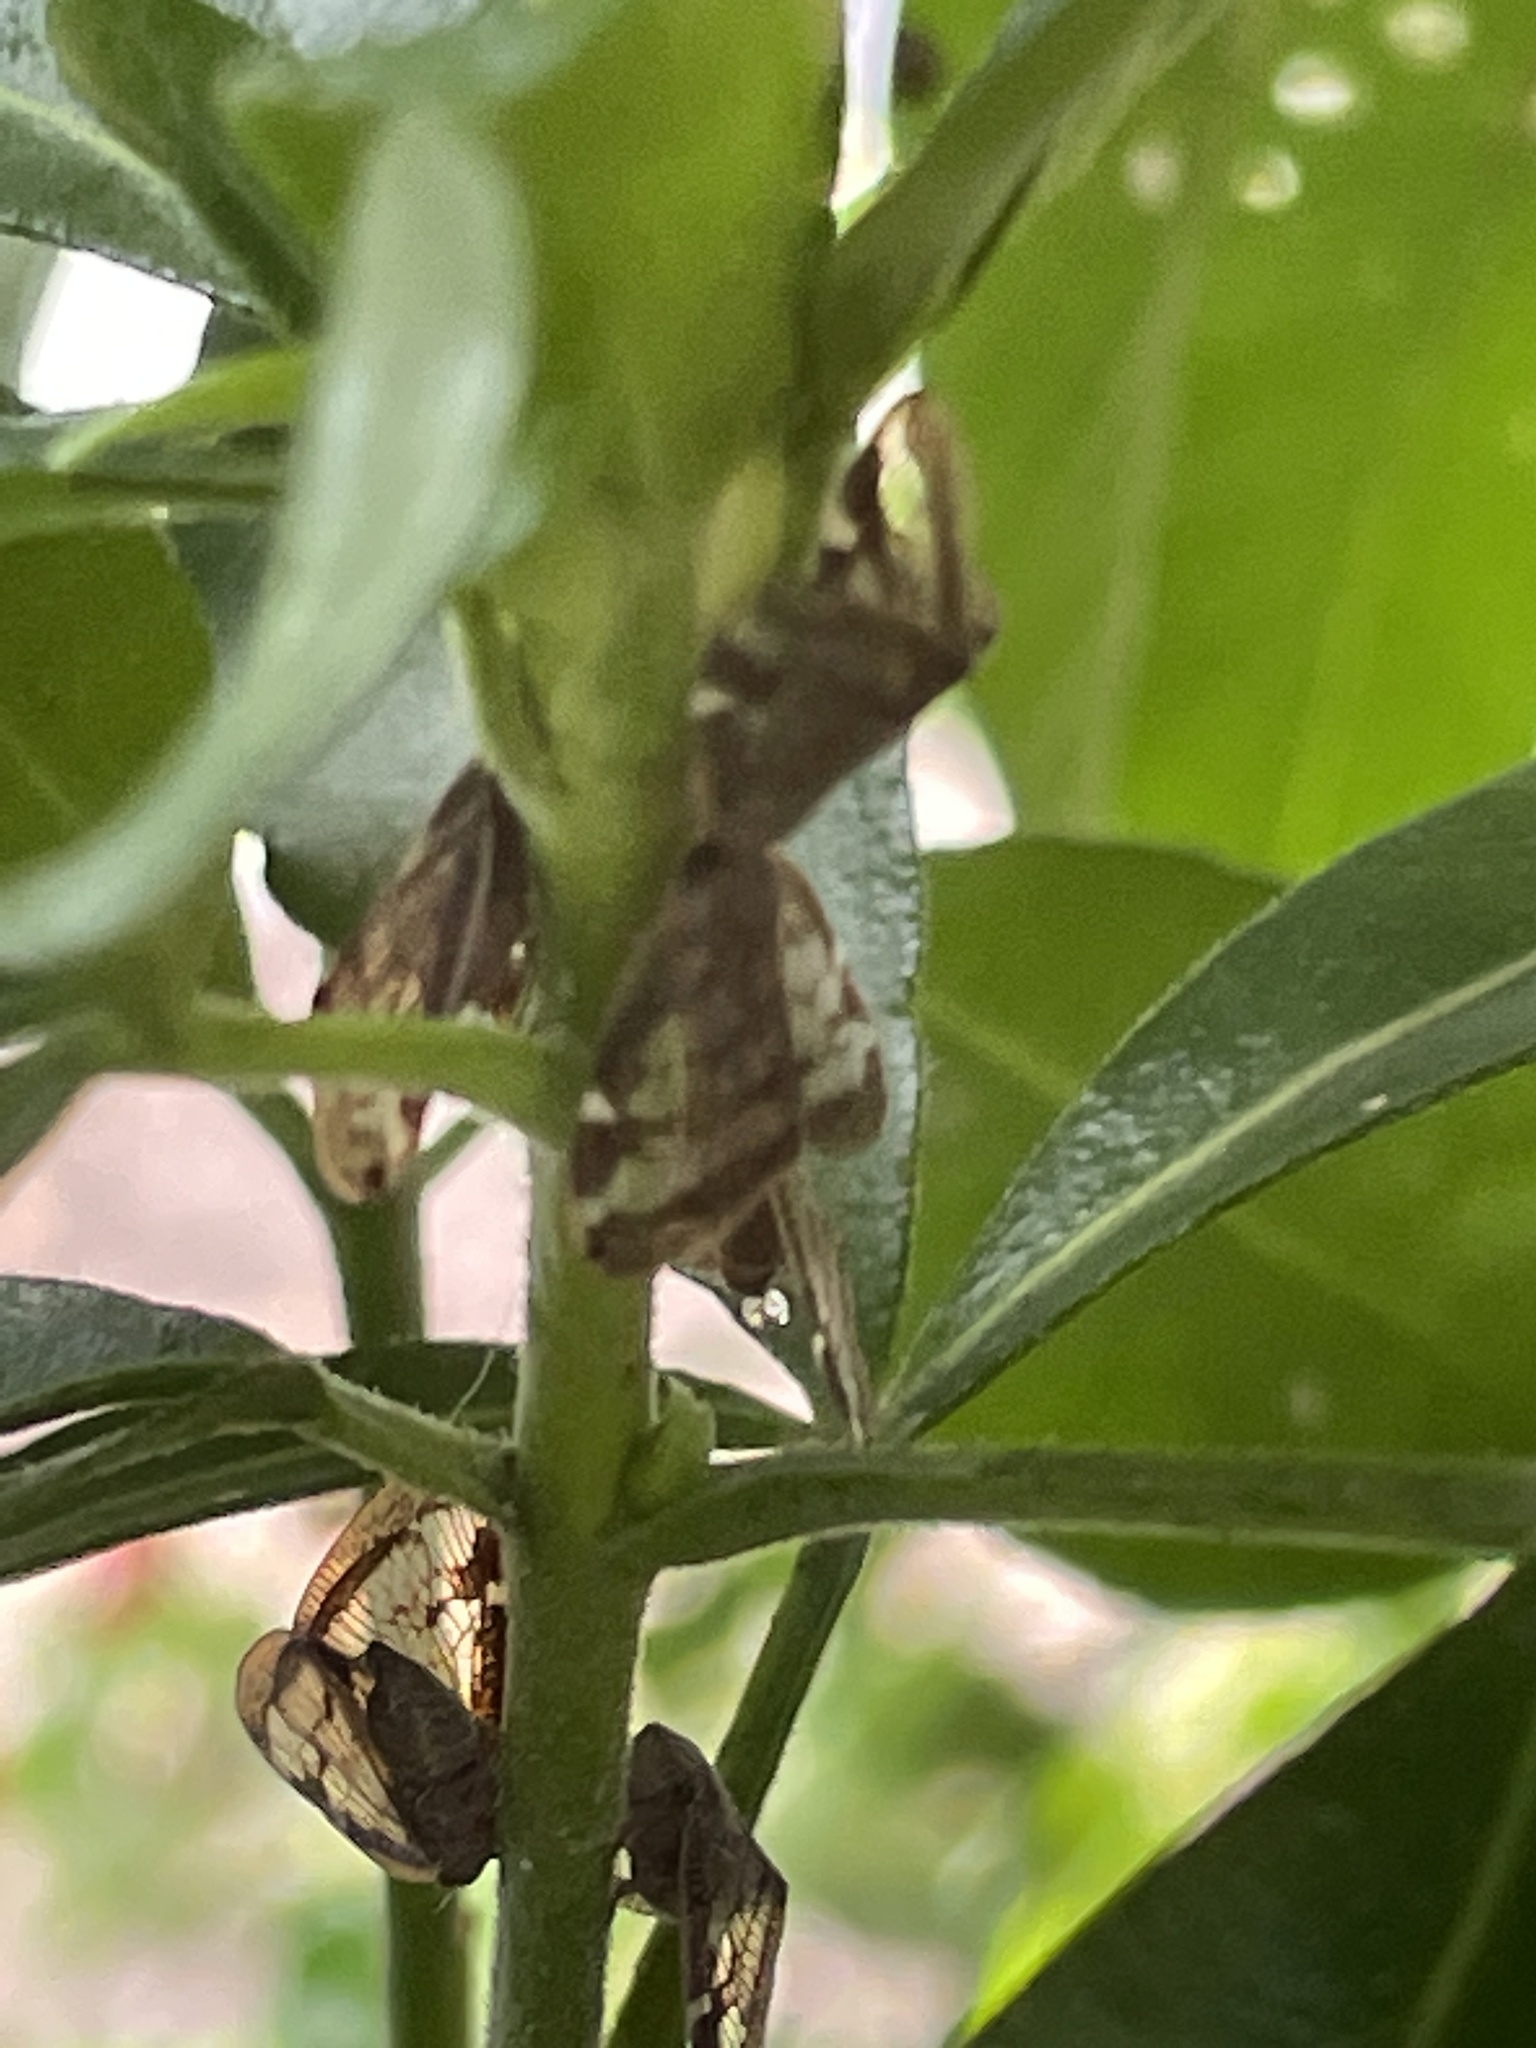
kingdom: Animalia
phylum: Arthropoda
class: Insecta
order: Hemiptera
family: Ricaniidae
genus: Scolypopa
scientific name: Scolypopa australis
